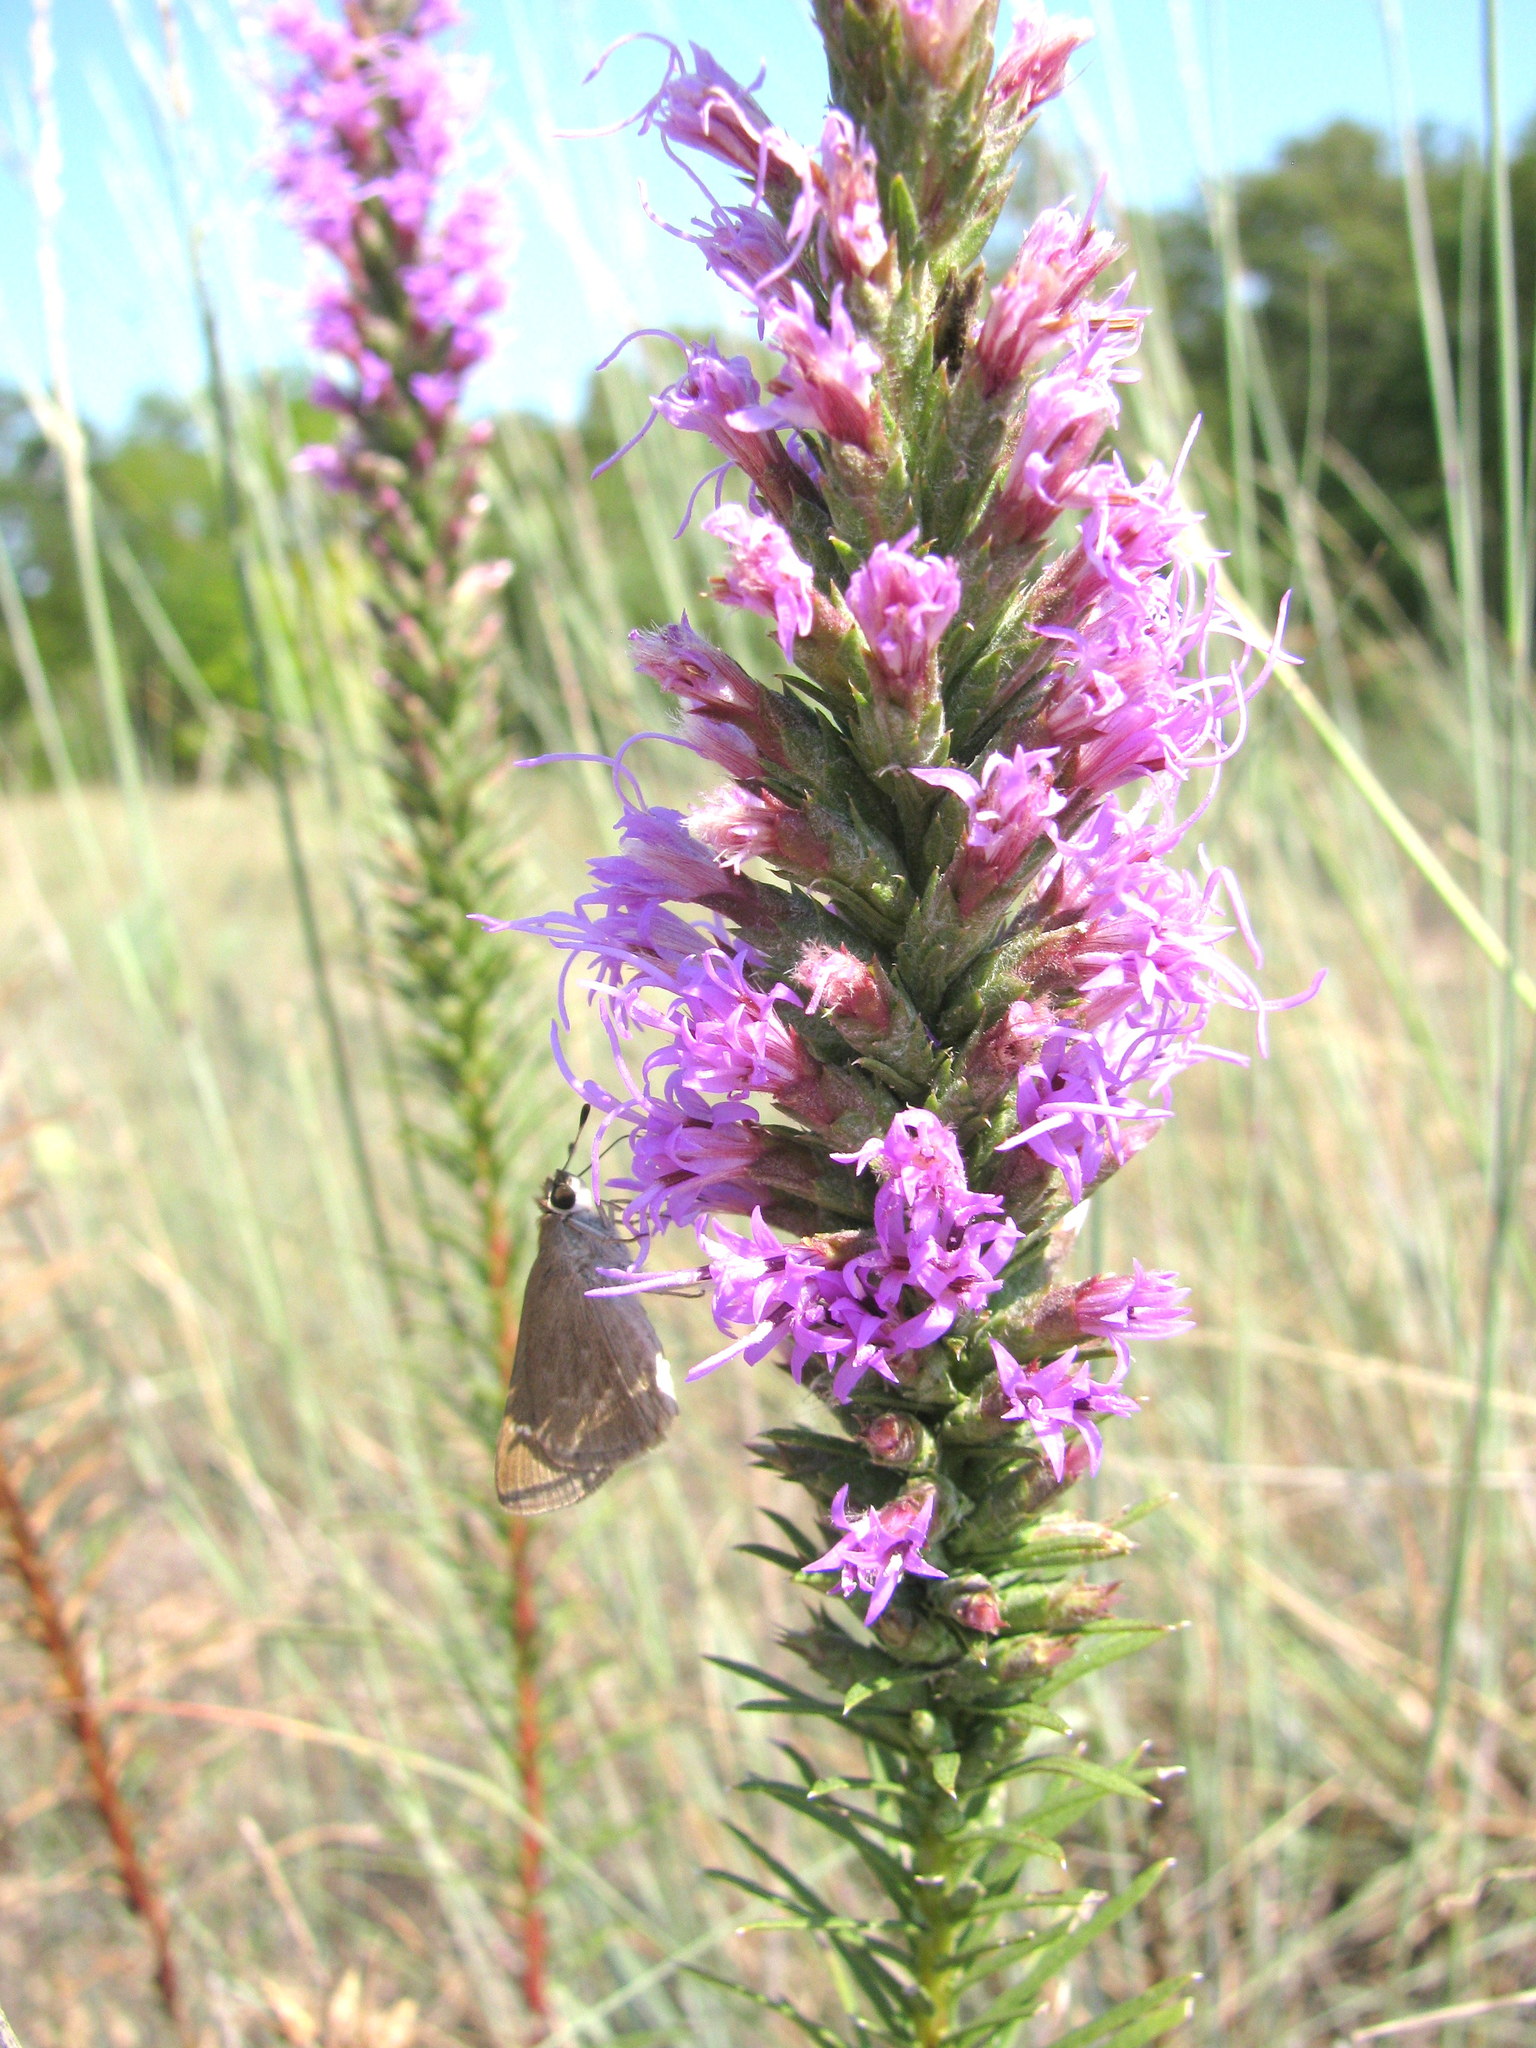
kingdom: Animalia
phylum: Arthropoda
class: Insecta
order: Lepidoptera
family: Hesperiidae
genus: Lerodea
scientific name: Lerodea eufala
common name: Eufala skipper
